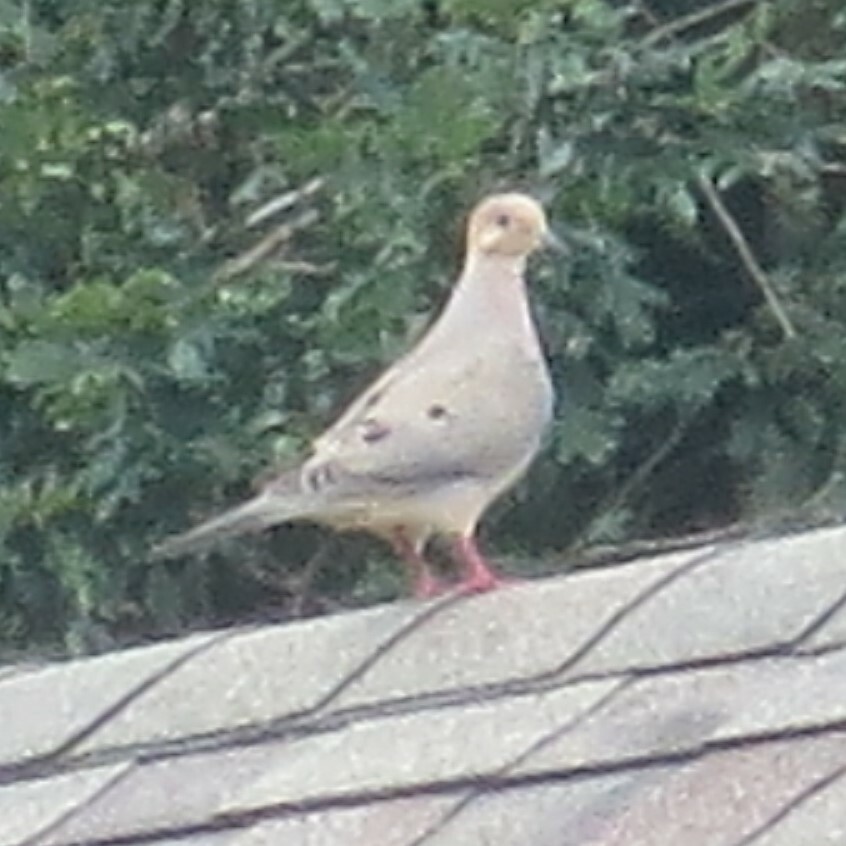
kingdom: Animalia
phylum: Chordata
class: Aves
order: Columbiformes
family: Columbidae
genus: Zenaida
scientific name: Zenaida macroura
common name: Mourning dove
